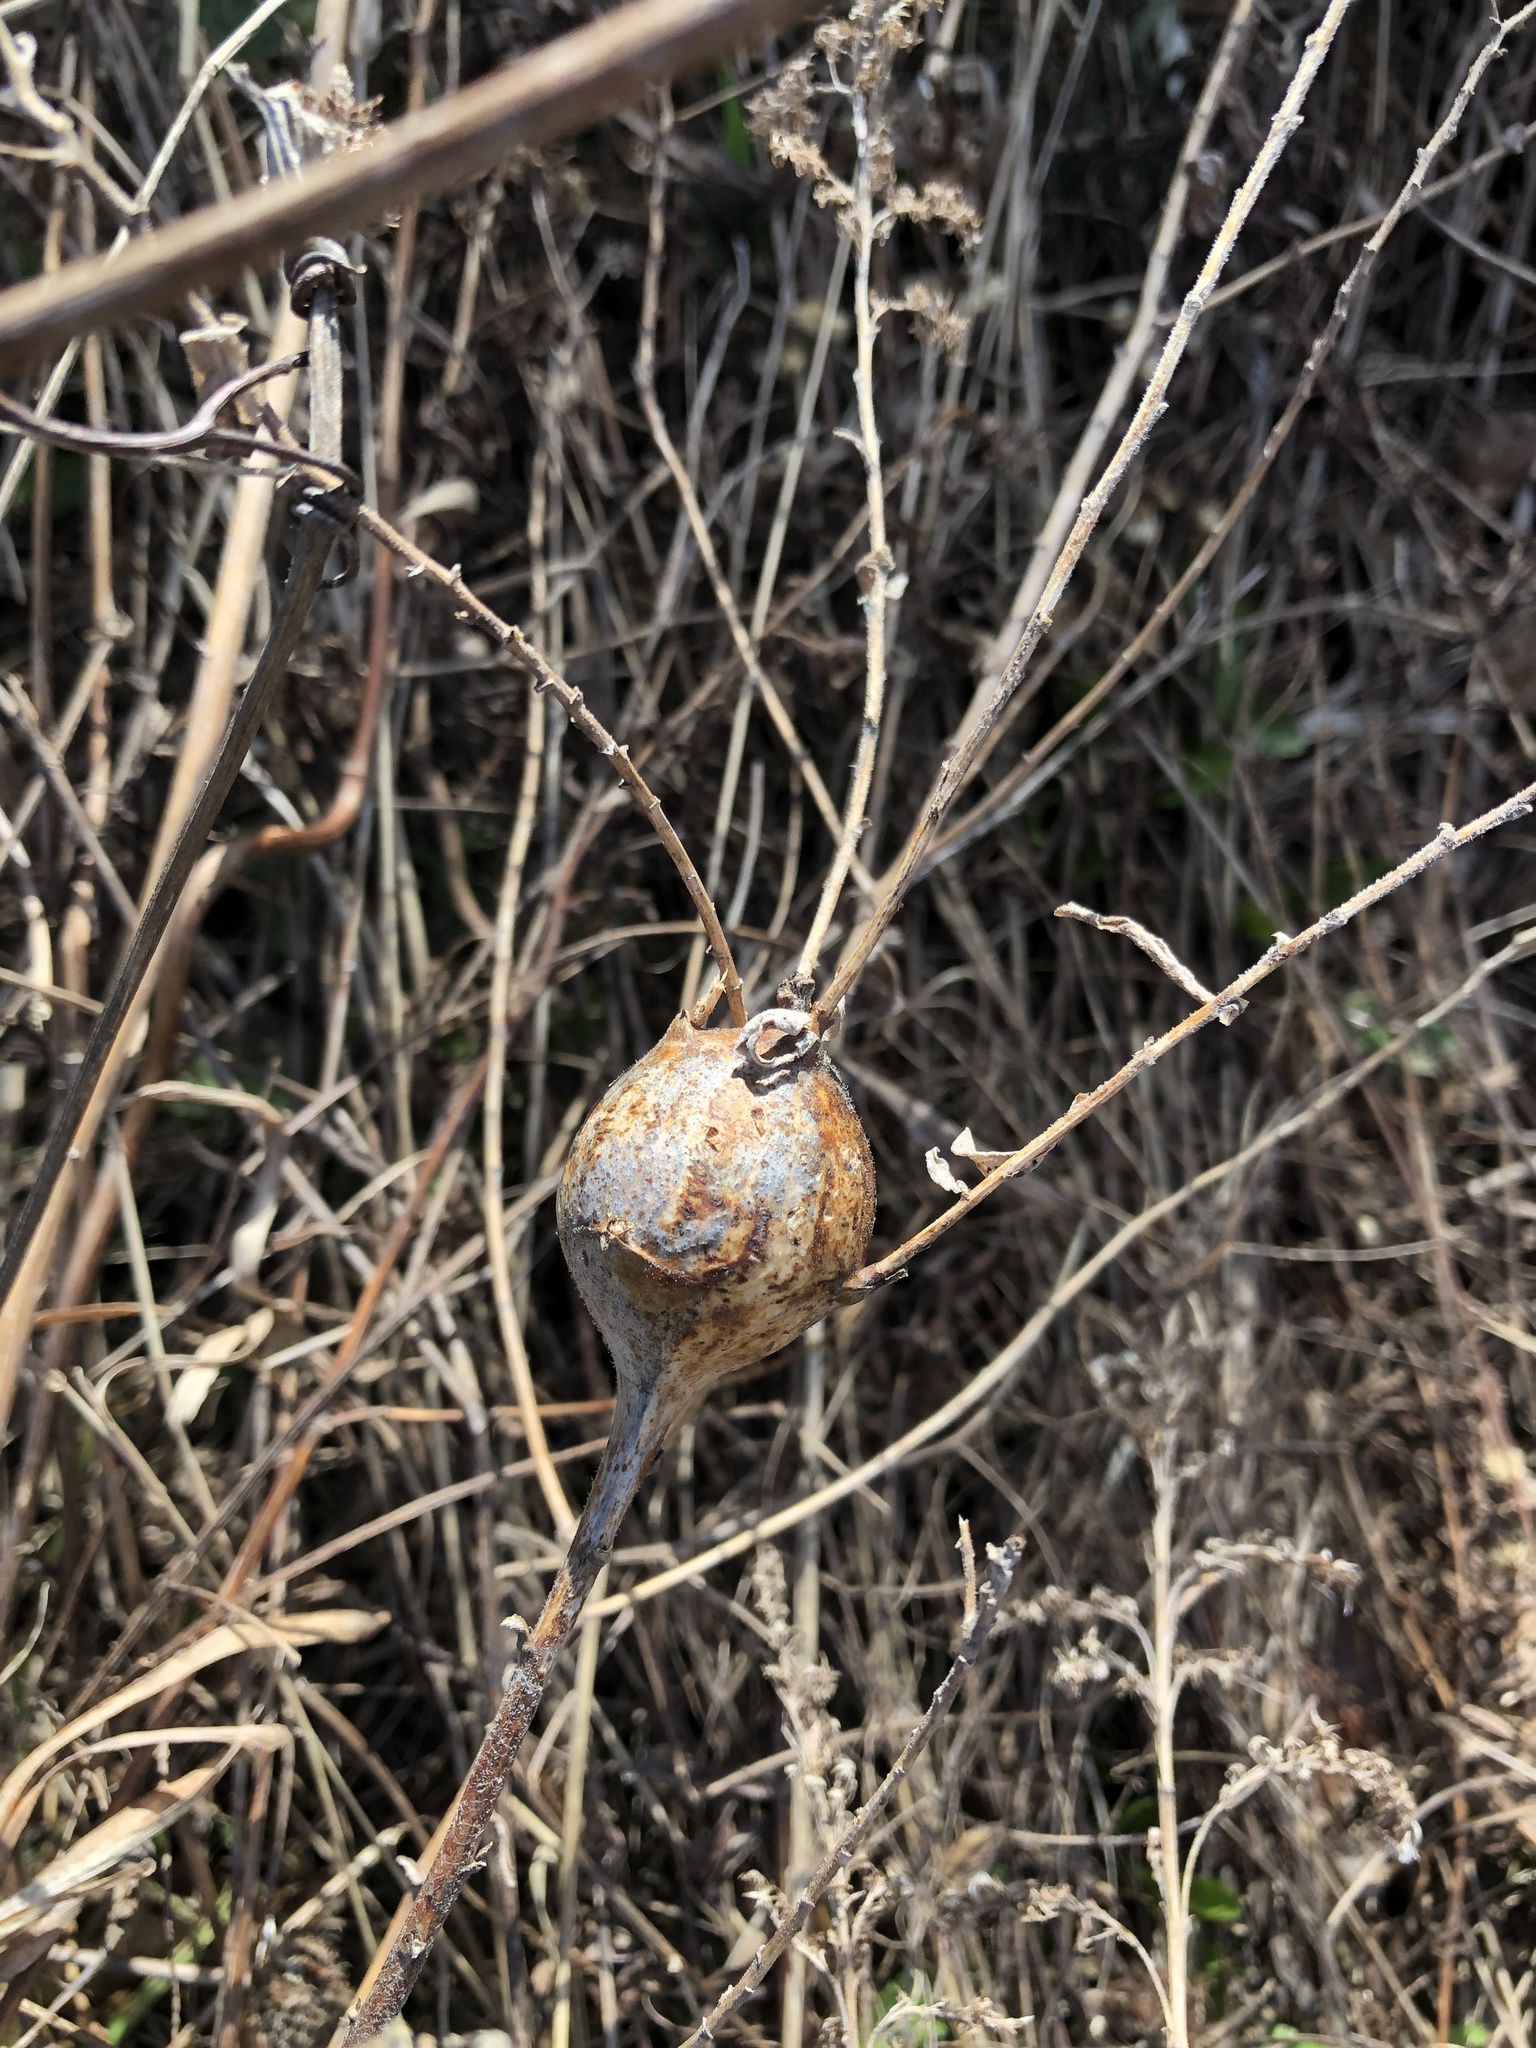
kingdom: Animalia
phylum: Arthropoda
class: Insecta
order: Diptera
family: Tephritidae
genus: Eurosta
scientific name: Eurosta solidaginis
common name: Goldenrod gall fly
